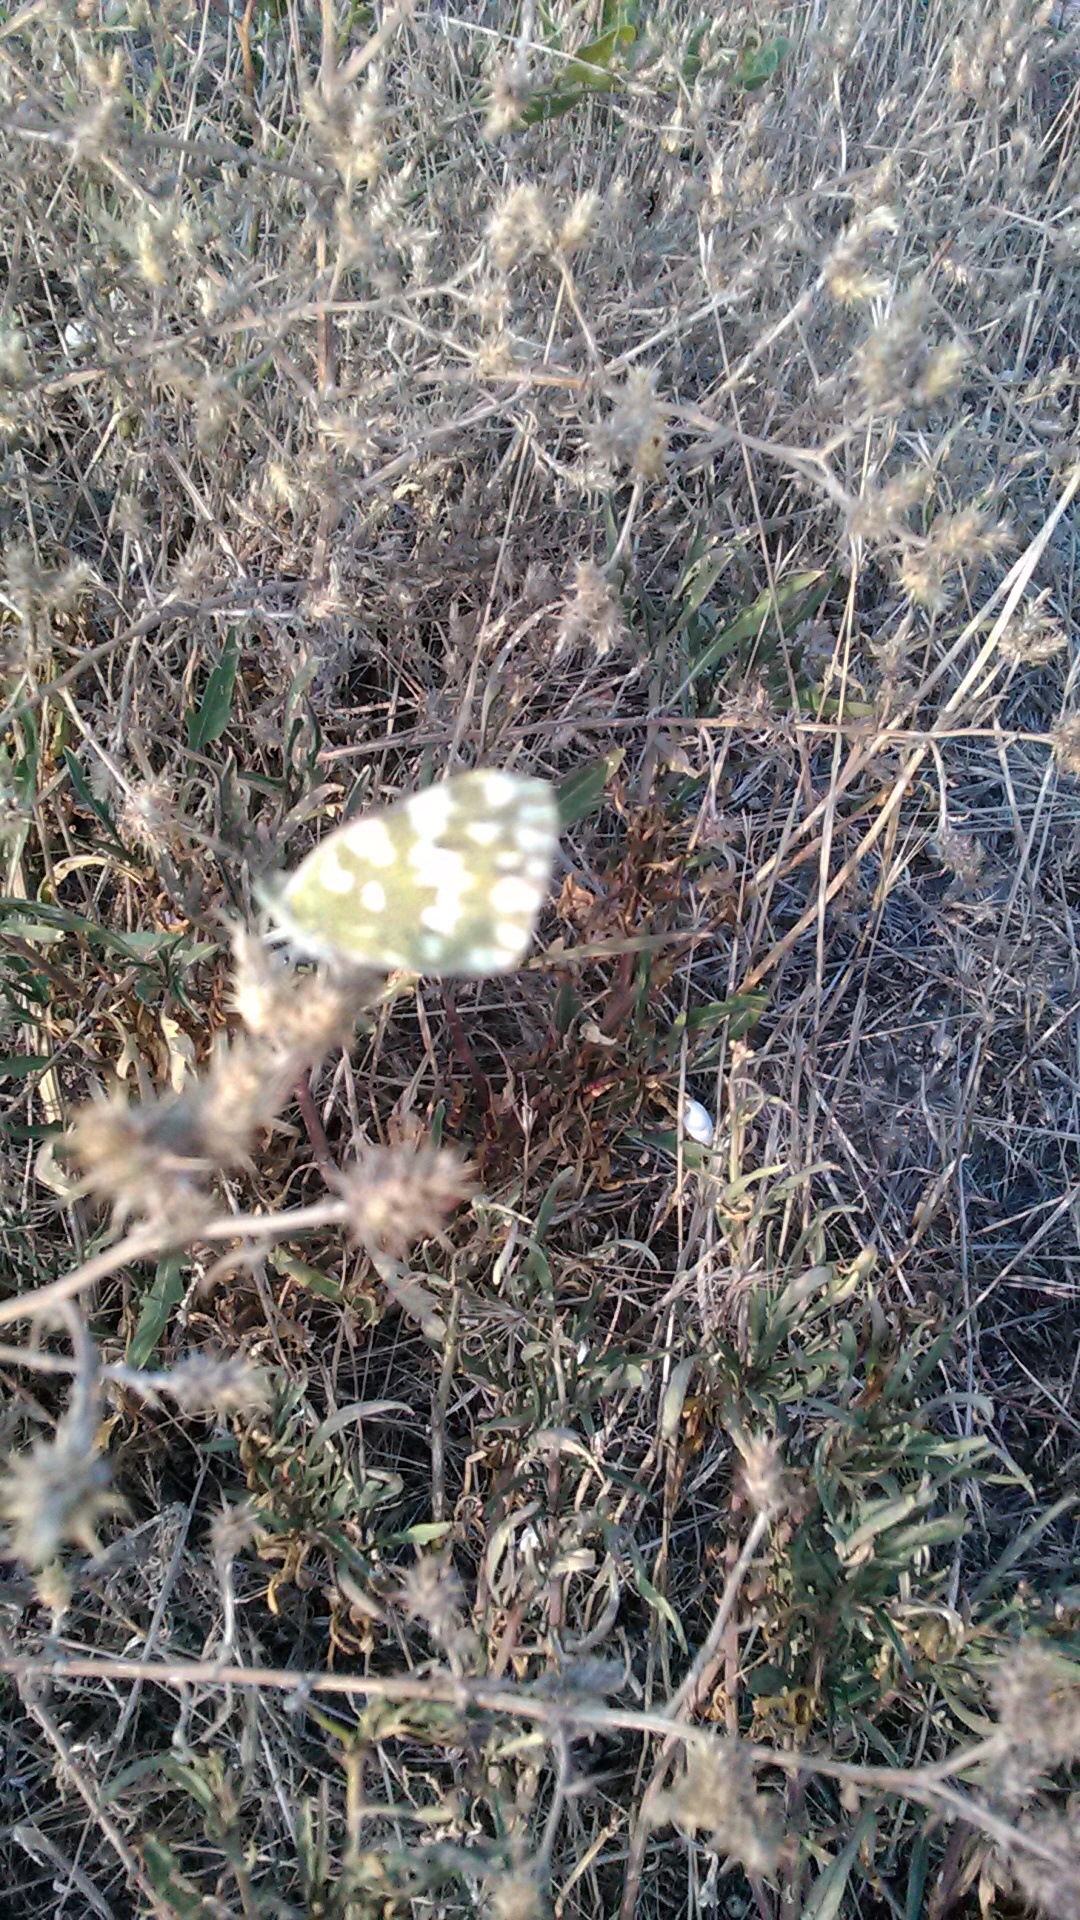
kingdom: Animalia
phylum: Arthropoda
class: Insecta
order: Lepidoptera
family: Pieridae
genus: Pontia
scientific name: Pontia edusa
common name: Eastern bath white
